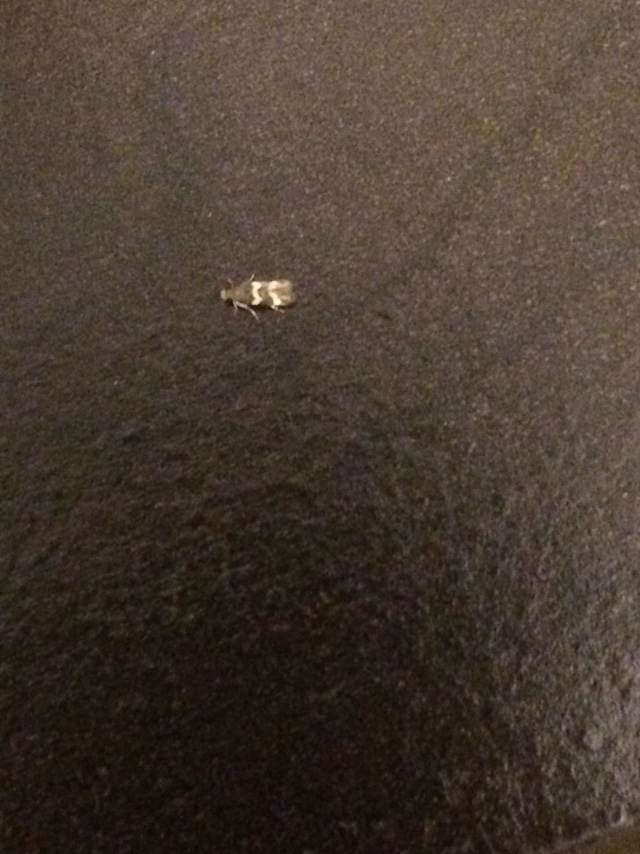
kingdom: Animalia
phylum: Arthropoda
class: Insecta
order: Lepidoptera
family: Tineidae
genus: Oinophila
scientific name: Oinophila v-flava
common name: Yellow v moth
